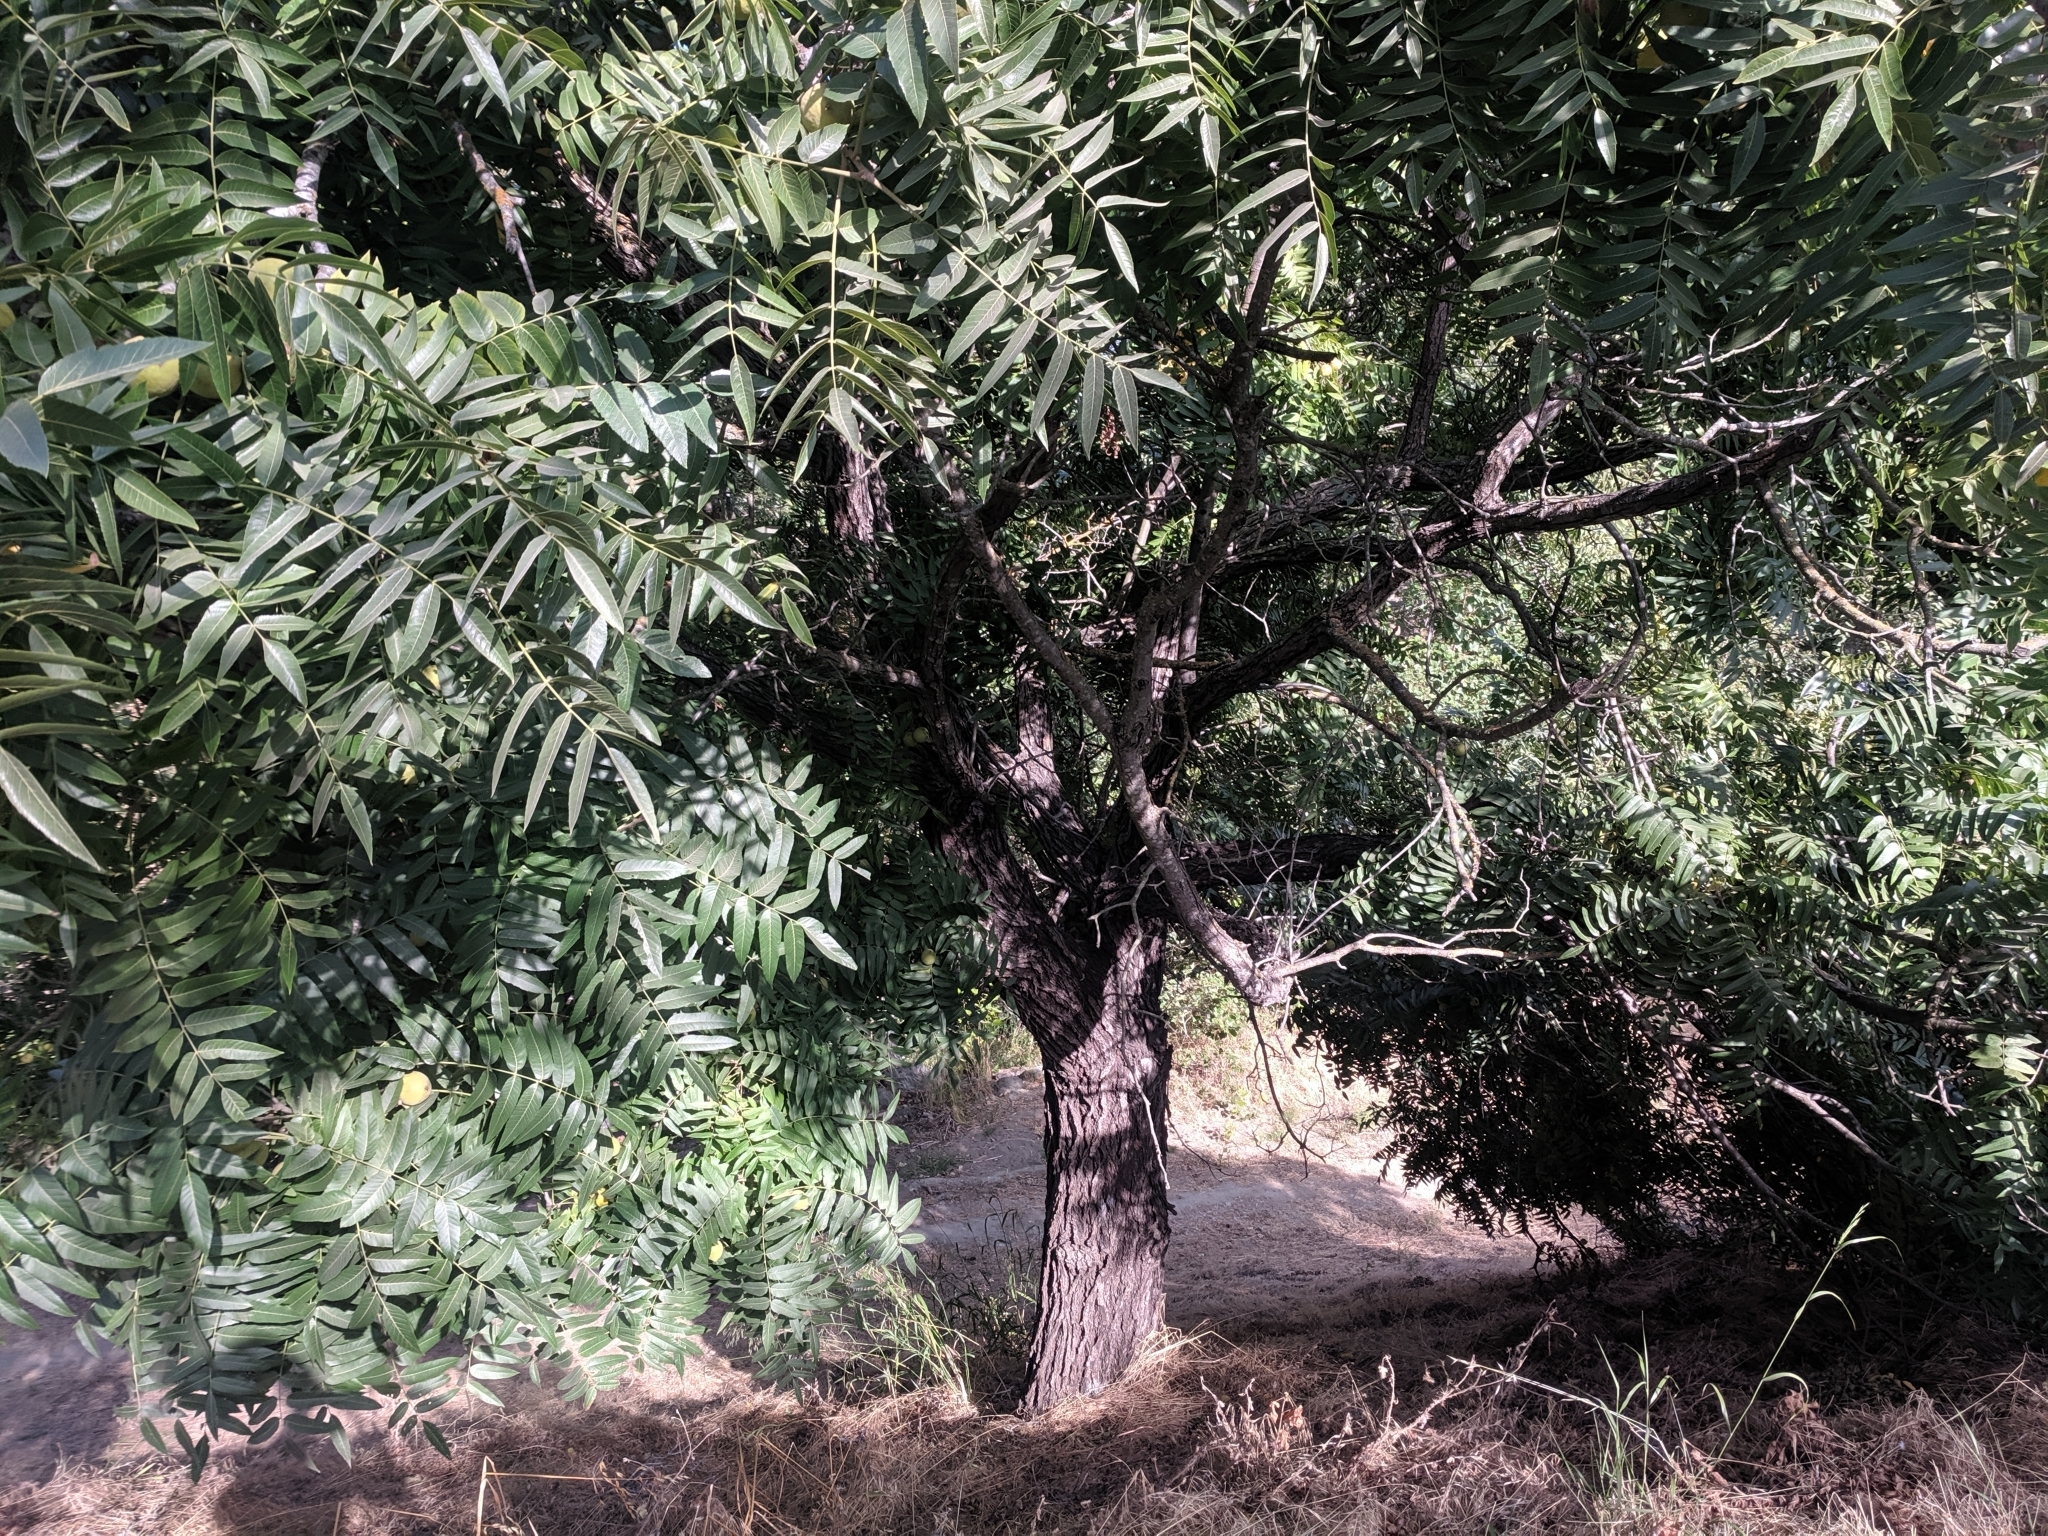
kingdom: Plantae
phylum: Tracheophyta
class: Magnoliopsida
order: Fagales
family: Juglandaceae
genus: Juglans
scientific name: Juglans hindsii
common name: Northern california black walnut
